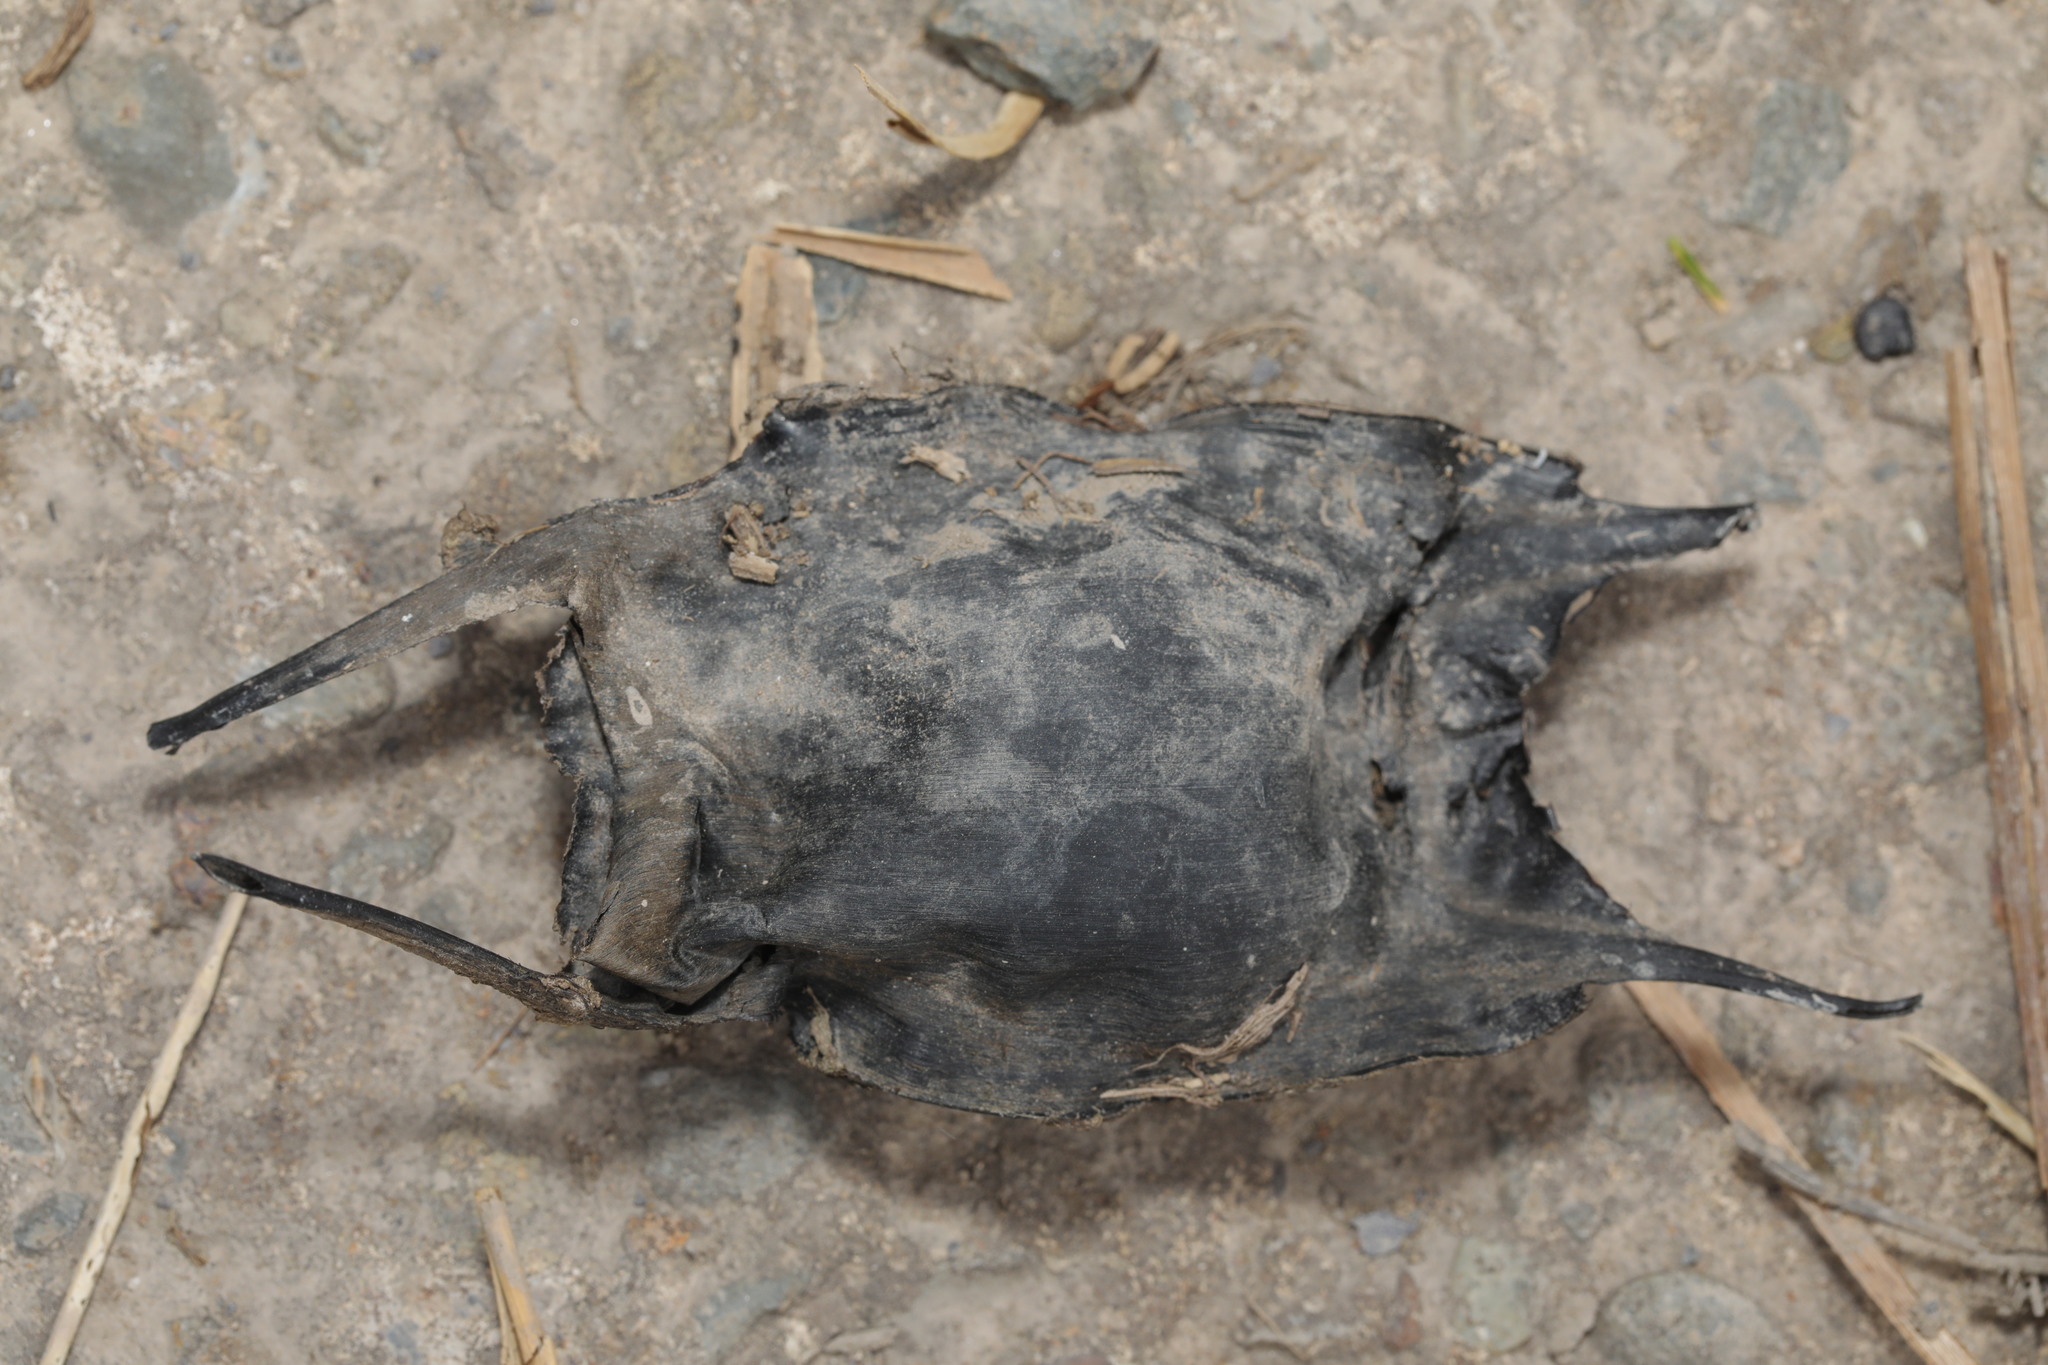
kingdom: Animalia
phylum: Chordata
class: Elasmobranchii
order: Rajiformes
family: Rajidae
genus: Raja
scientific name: Raja clavata
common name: Thornback ray
